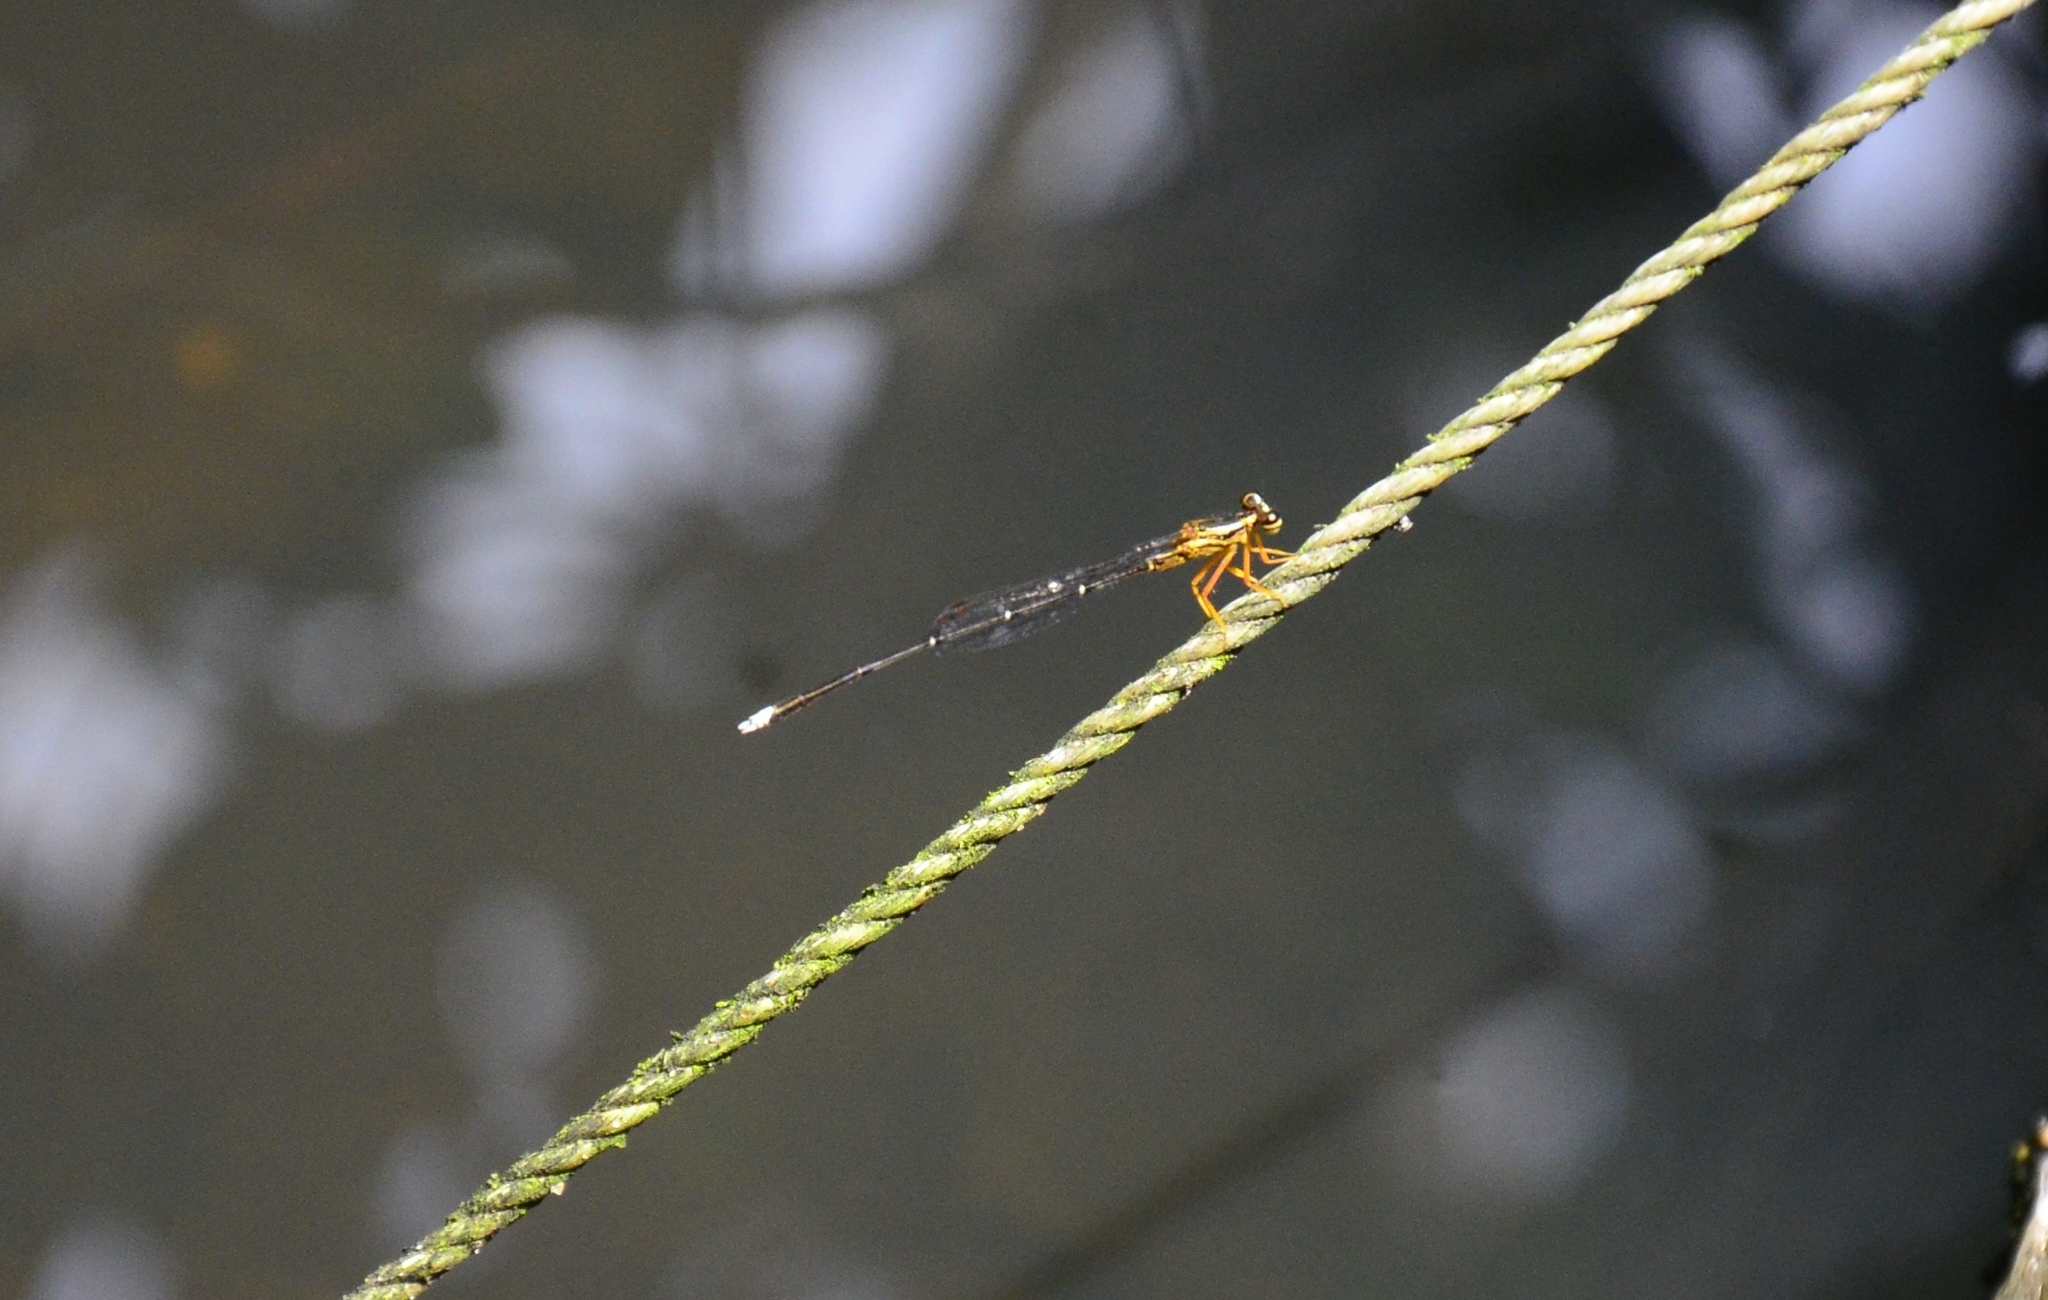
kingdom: Animalia
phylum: Arthropoda
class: Insecta
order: Odonata
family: Platycnemididae
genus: Copera
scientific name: Copera marginipes
